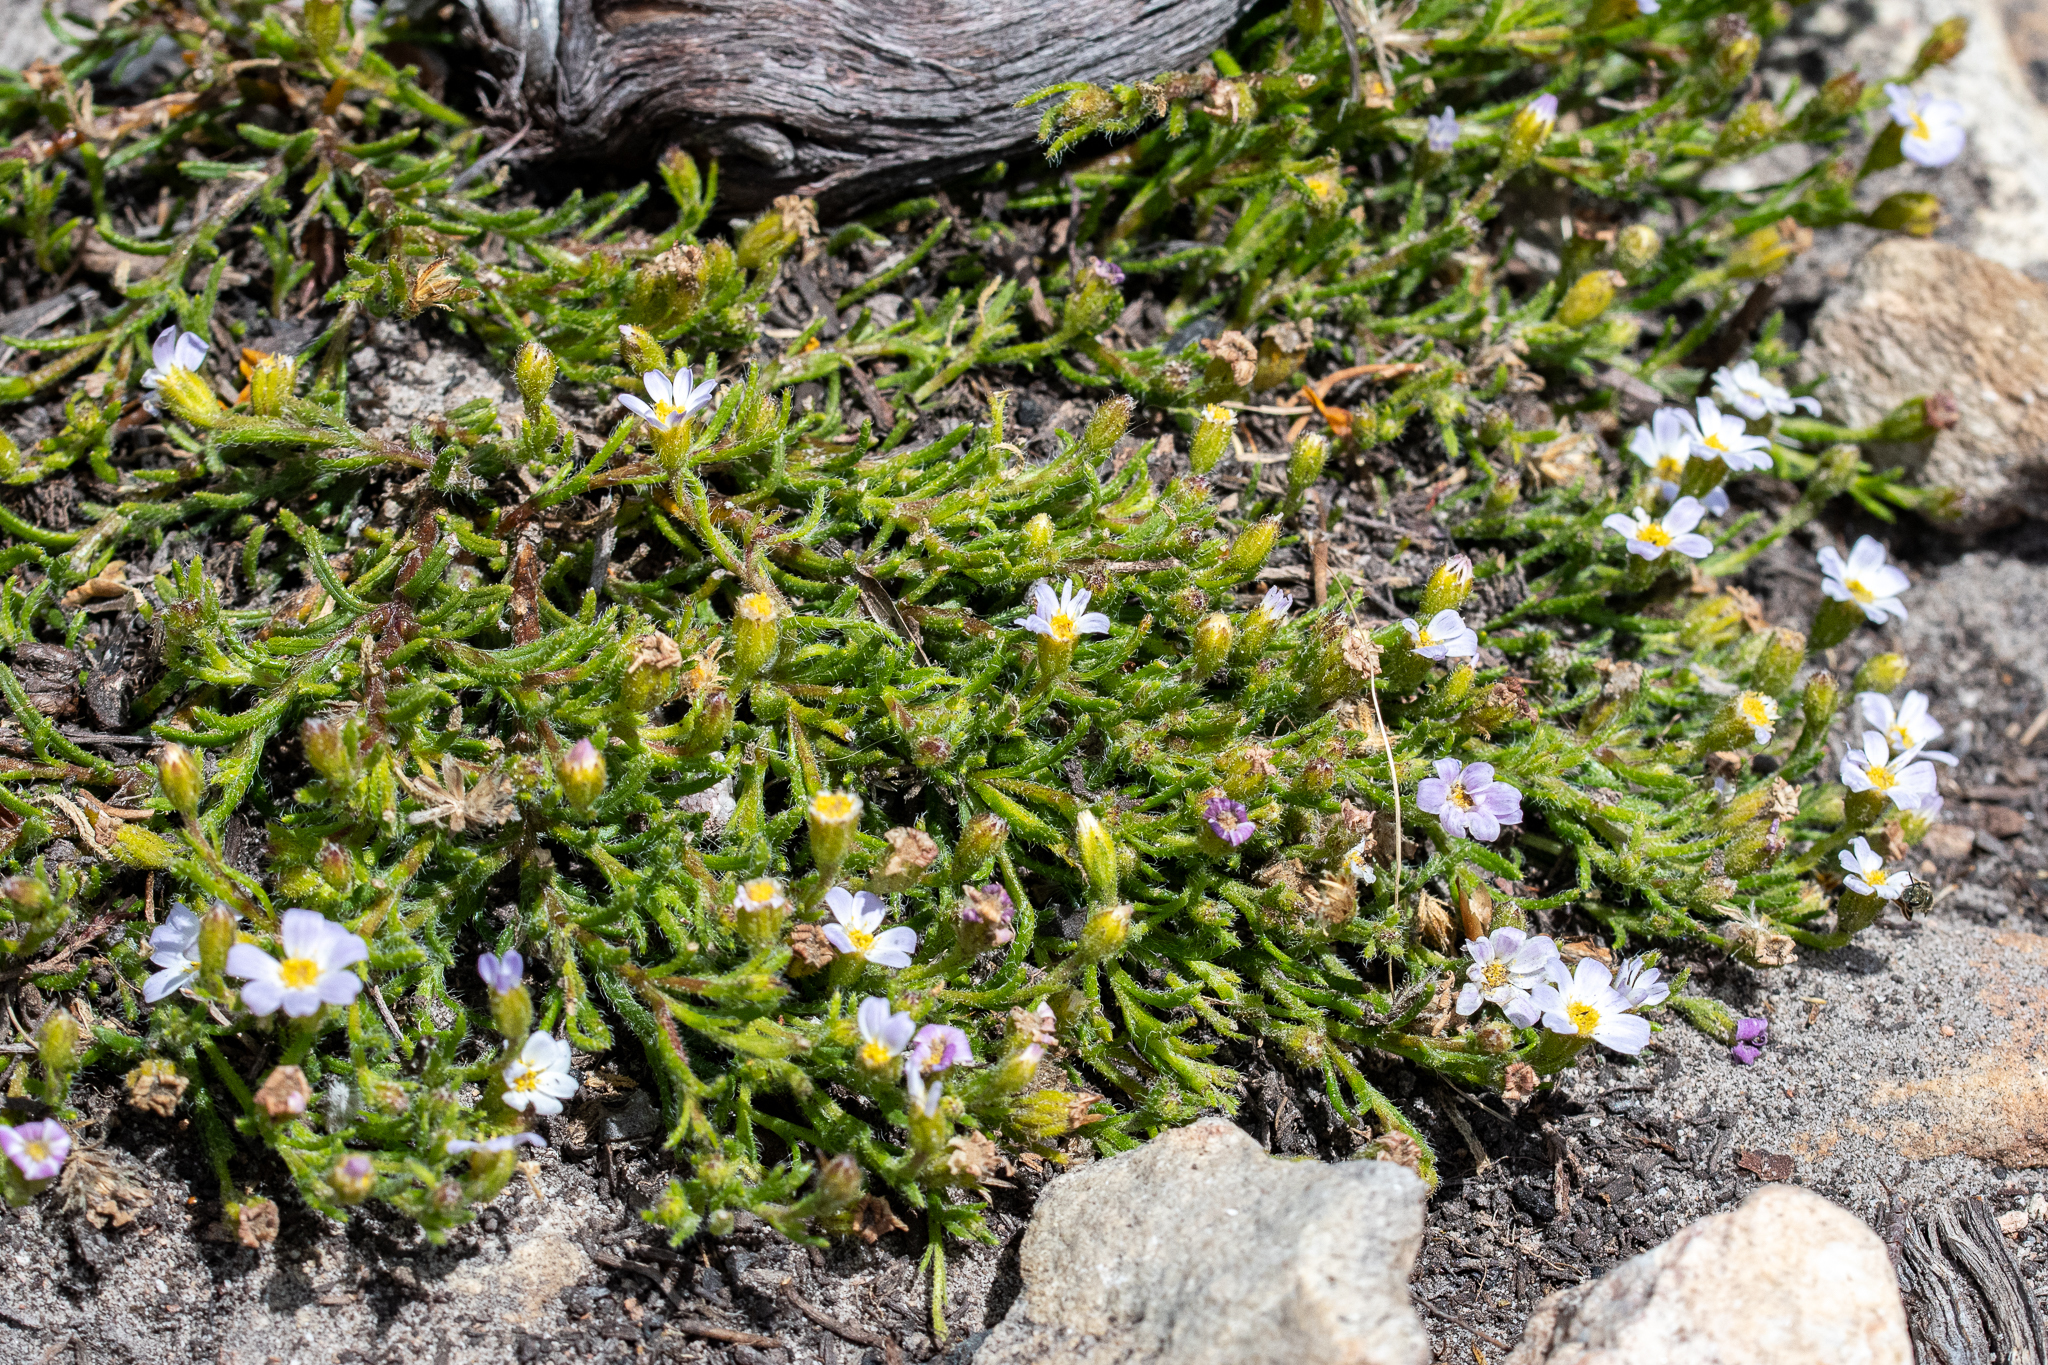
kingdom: Plantae
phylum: Tracheophyta
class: Magnoliopsida
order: Asterales
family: Asteraceae
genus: Zyrphelis
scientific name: Zyrphelis foliosa
